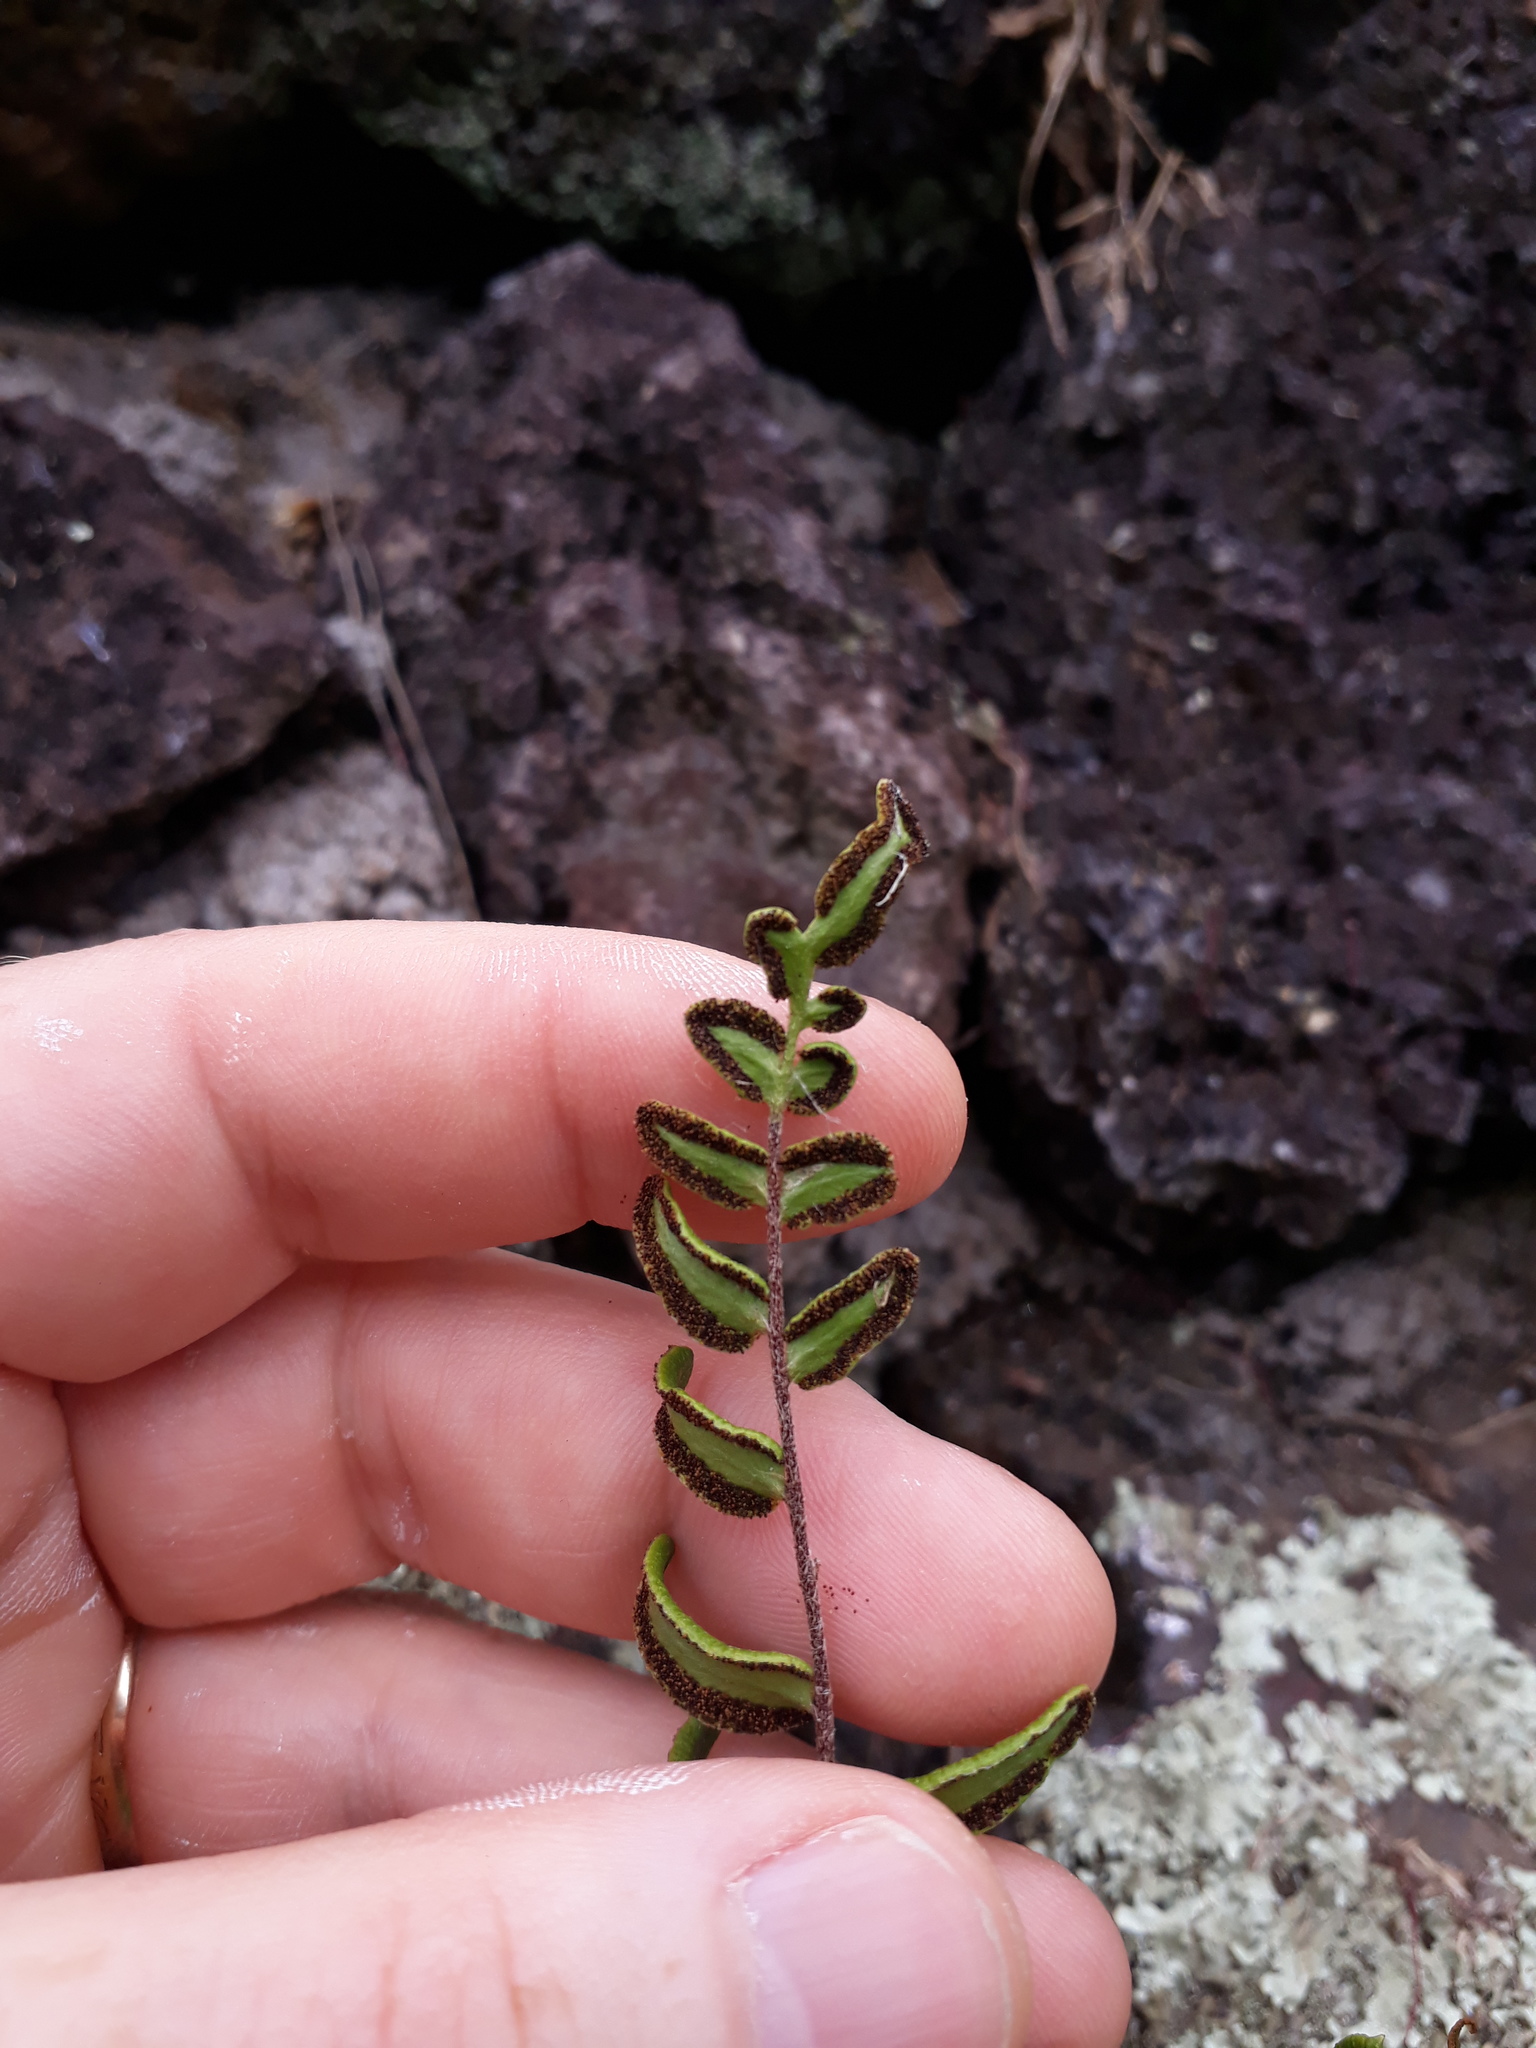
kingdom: Plantae
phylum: Tracheophyta
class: Polypodiopsida
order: Polypodiales
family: Pteridaceae
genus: Pellaea
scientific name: Pellaea calidirupium
